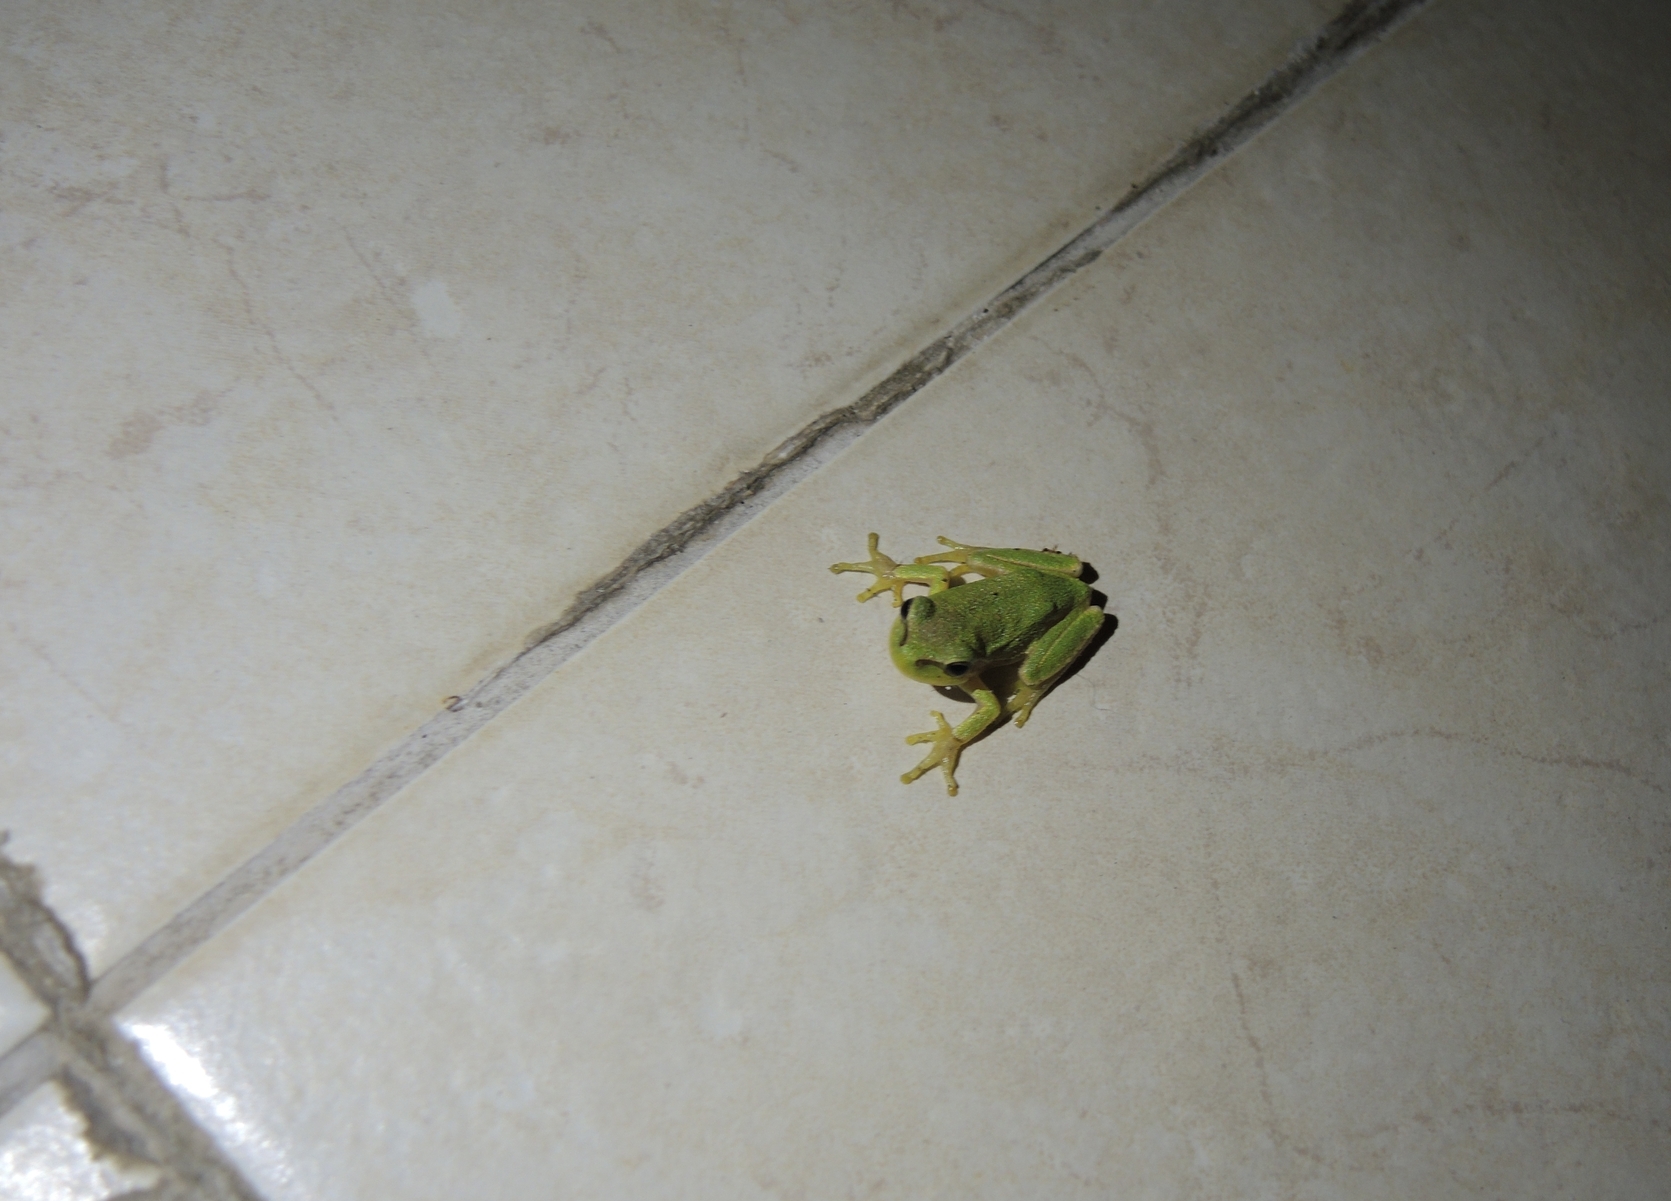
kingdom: Animalia
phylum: Chordata
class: Amphibia
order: Anura
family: Hylidae
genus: Hyla
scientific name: Hyla orientalis
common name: Caucasian treefrog
